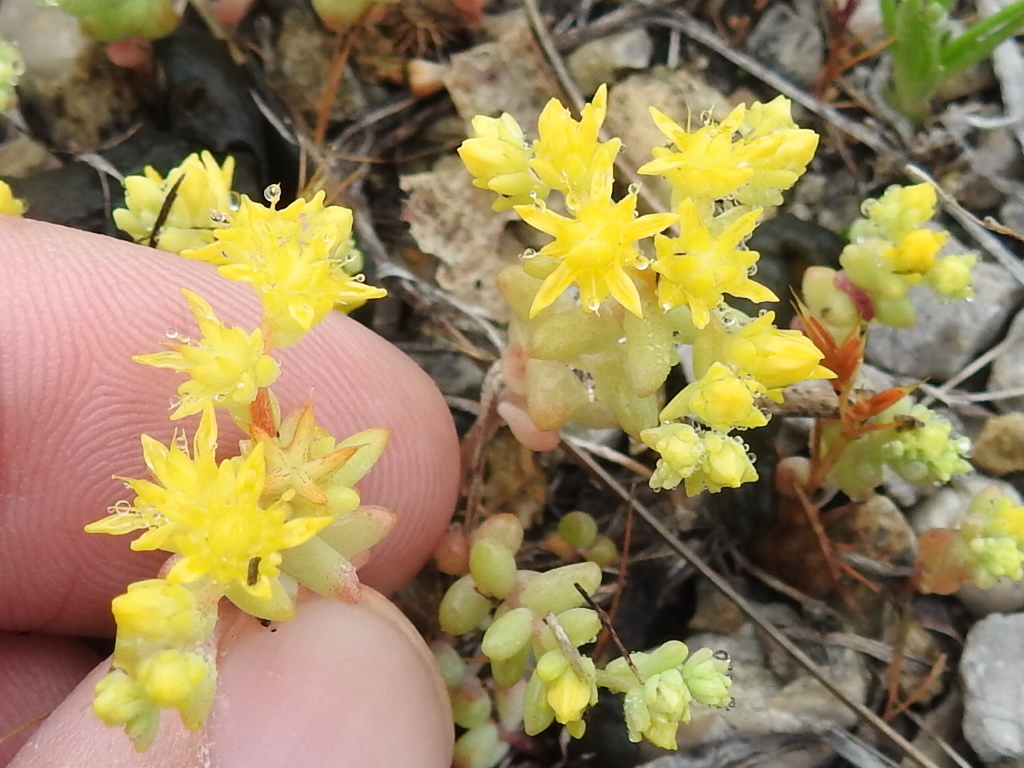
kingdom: Plantae
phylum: Tracheophyta
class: Magnoliopsida
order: Saxifragales
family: Crassulaceae
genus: Sedum
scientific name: Sedum nuttallii
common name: Yellow stonecrop
